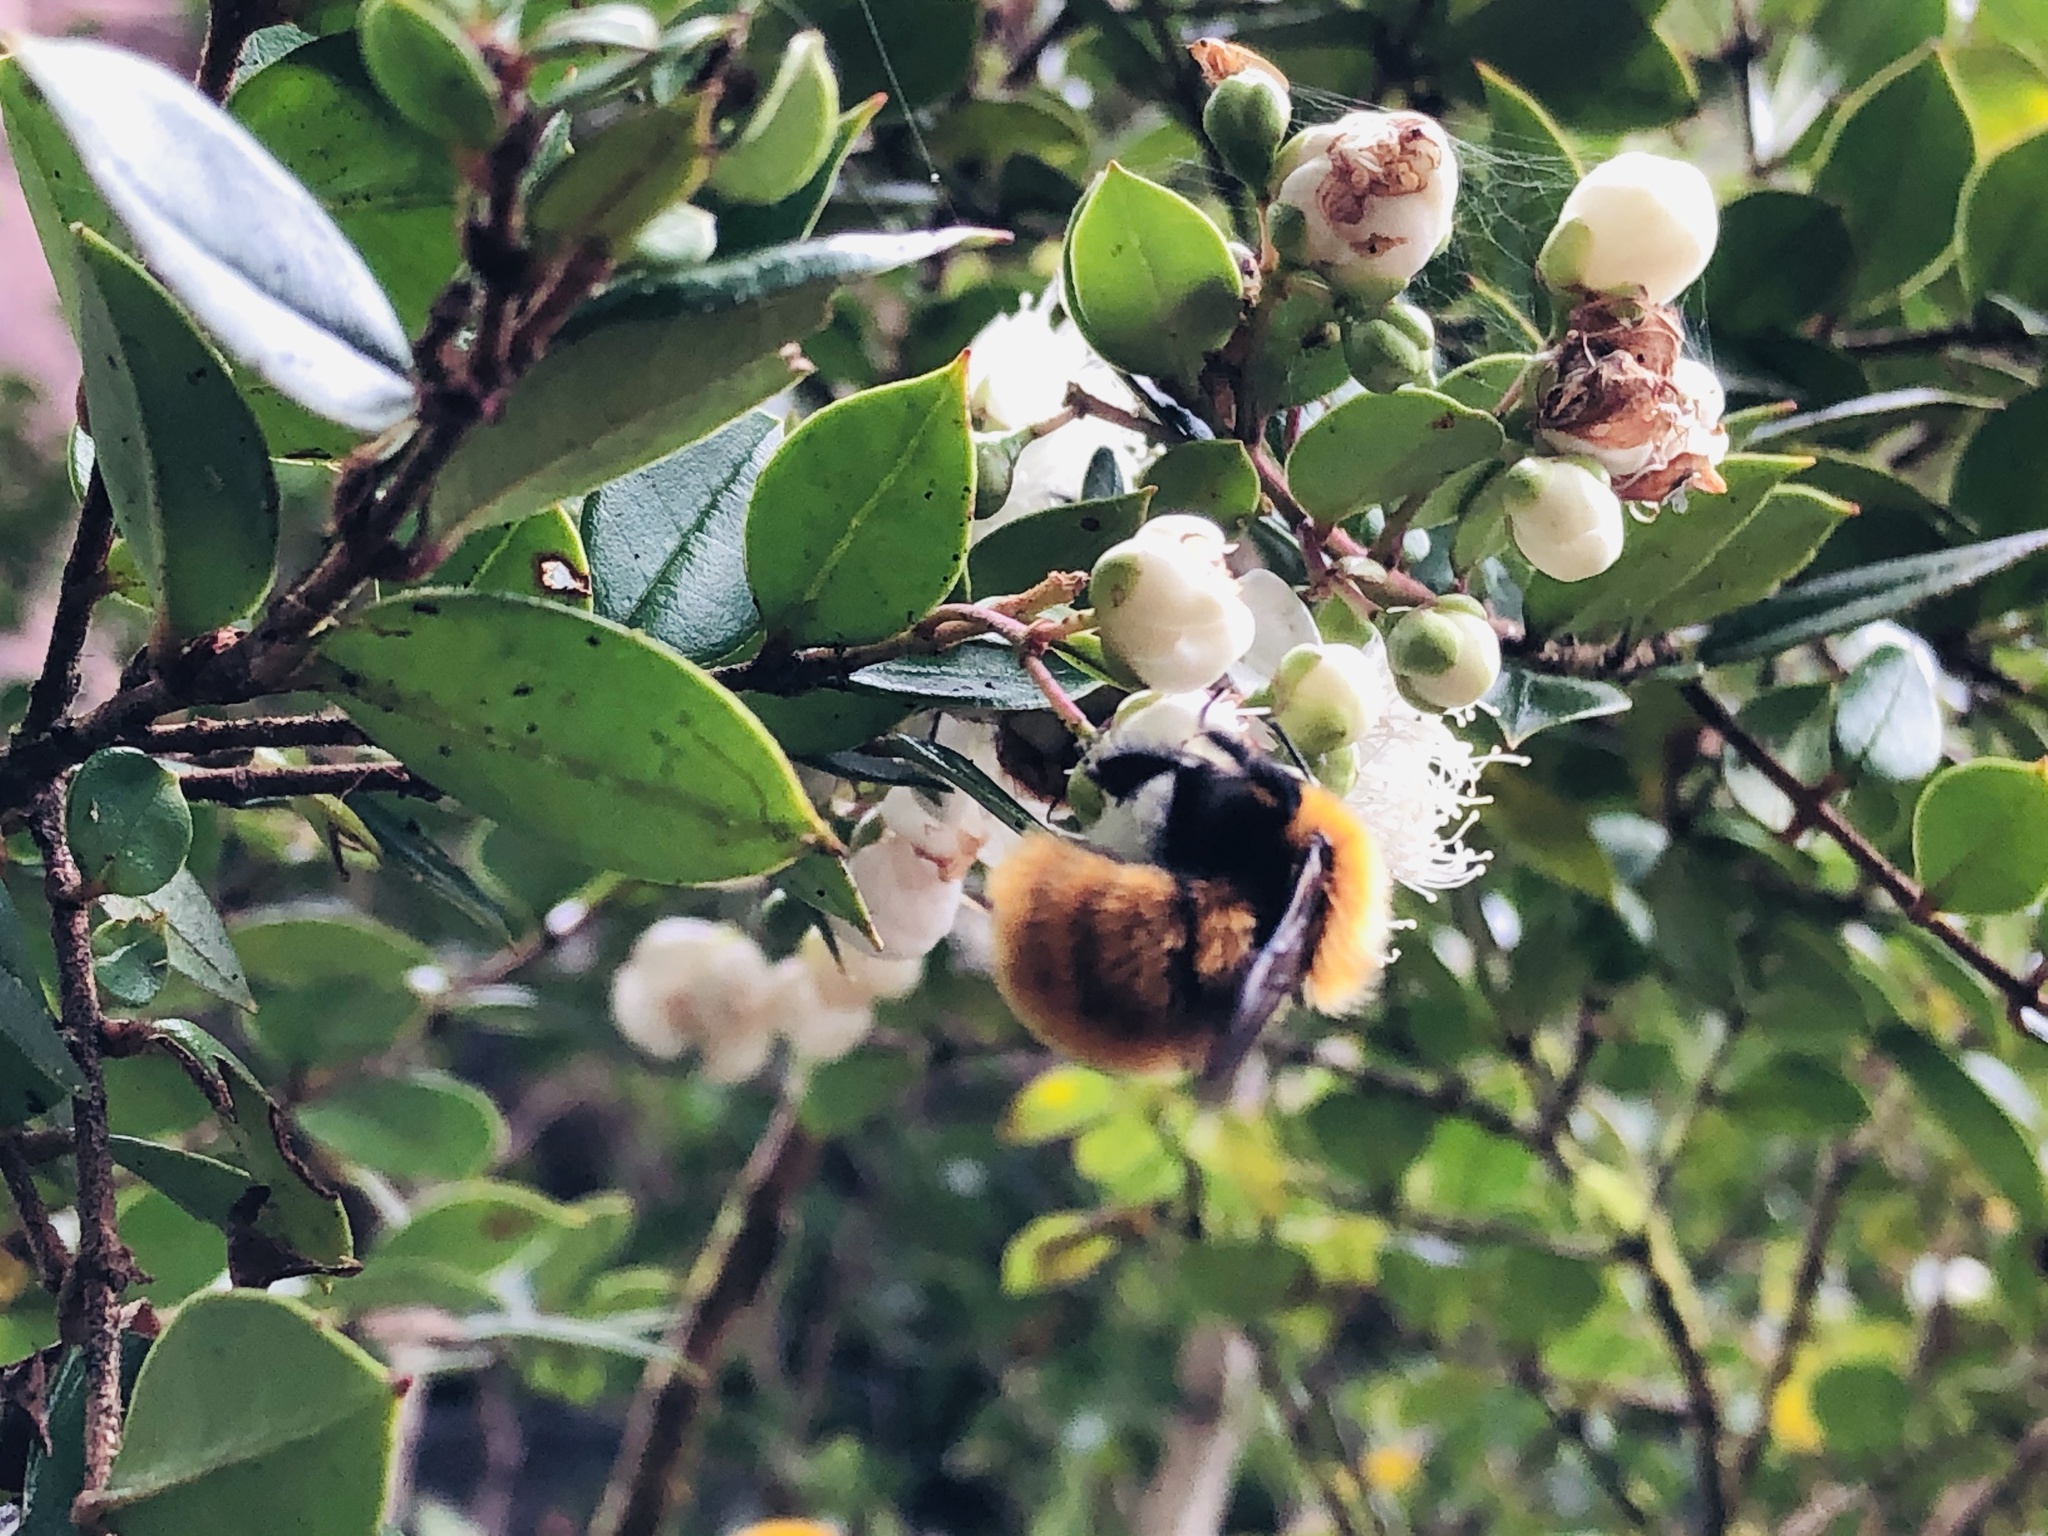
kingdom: Animalia
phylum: Arthropoda
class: Insecta
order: Hymenoptera
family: Apidae
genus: Bombus
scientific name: Bombus dahlbomii
